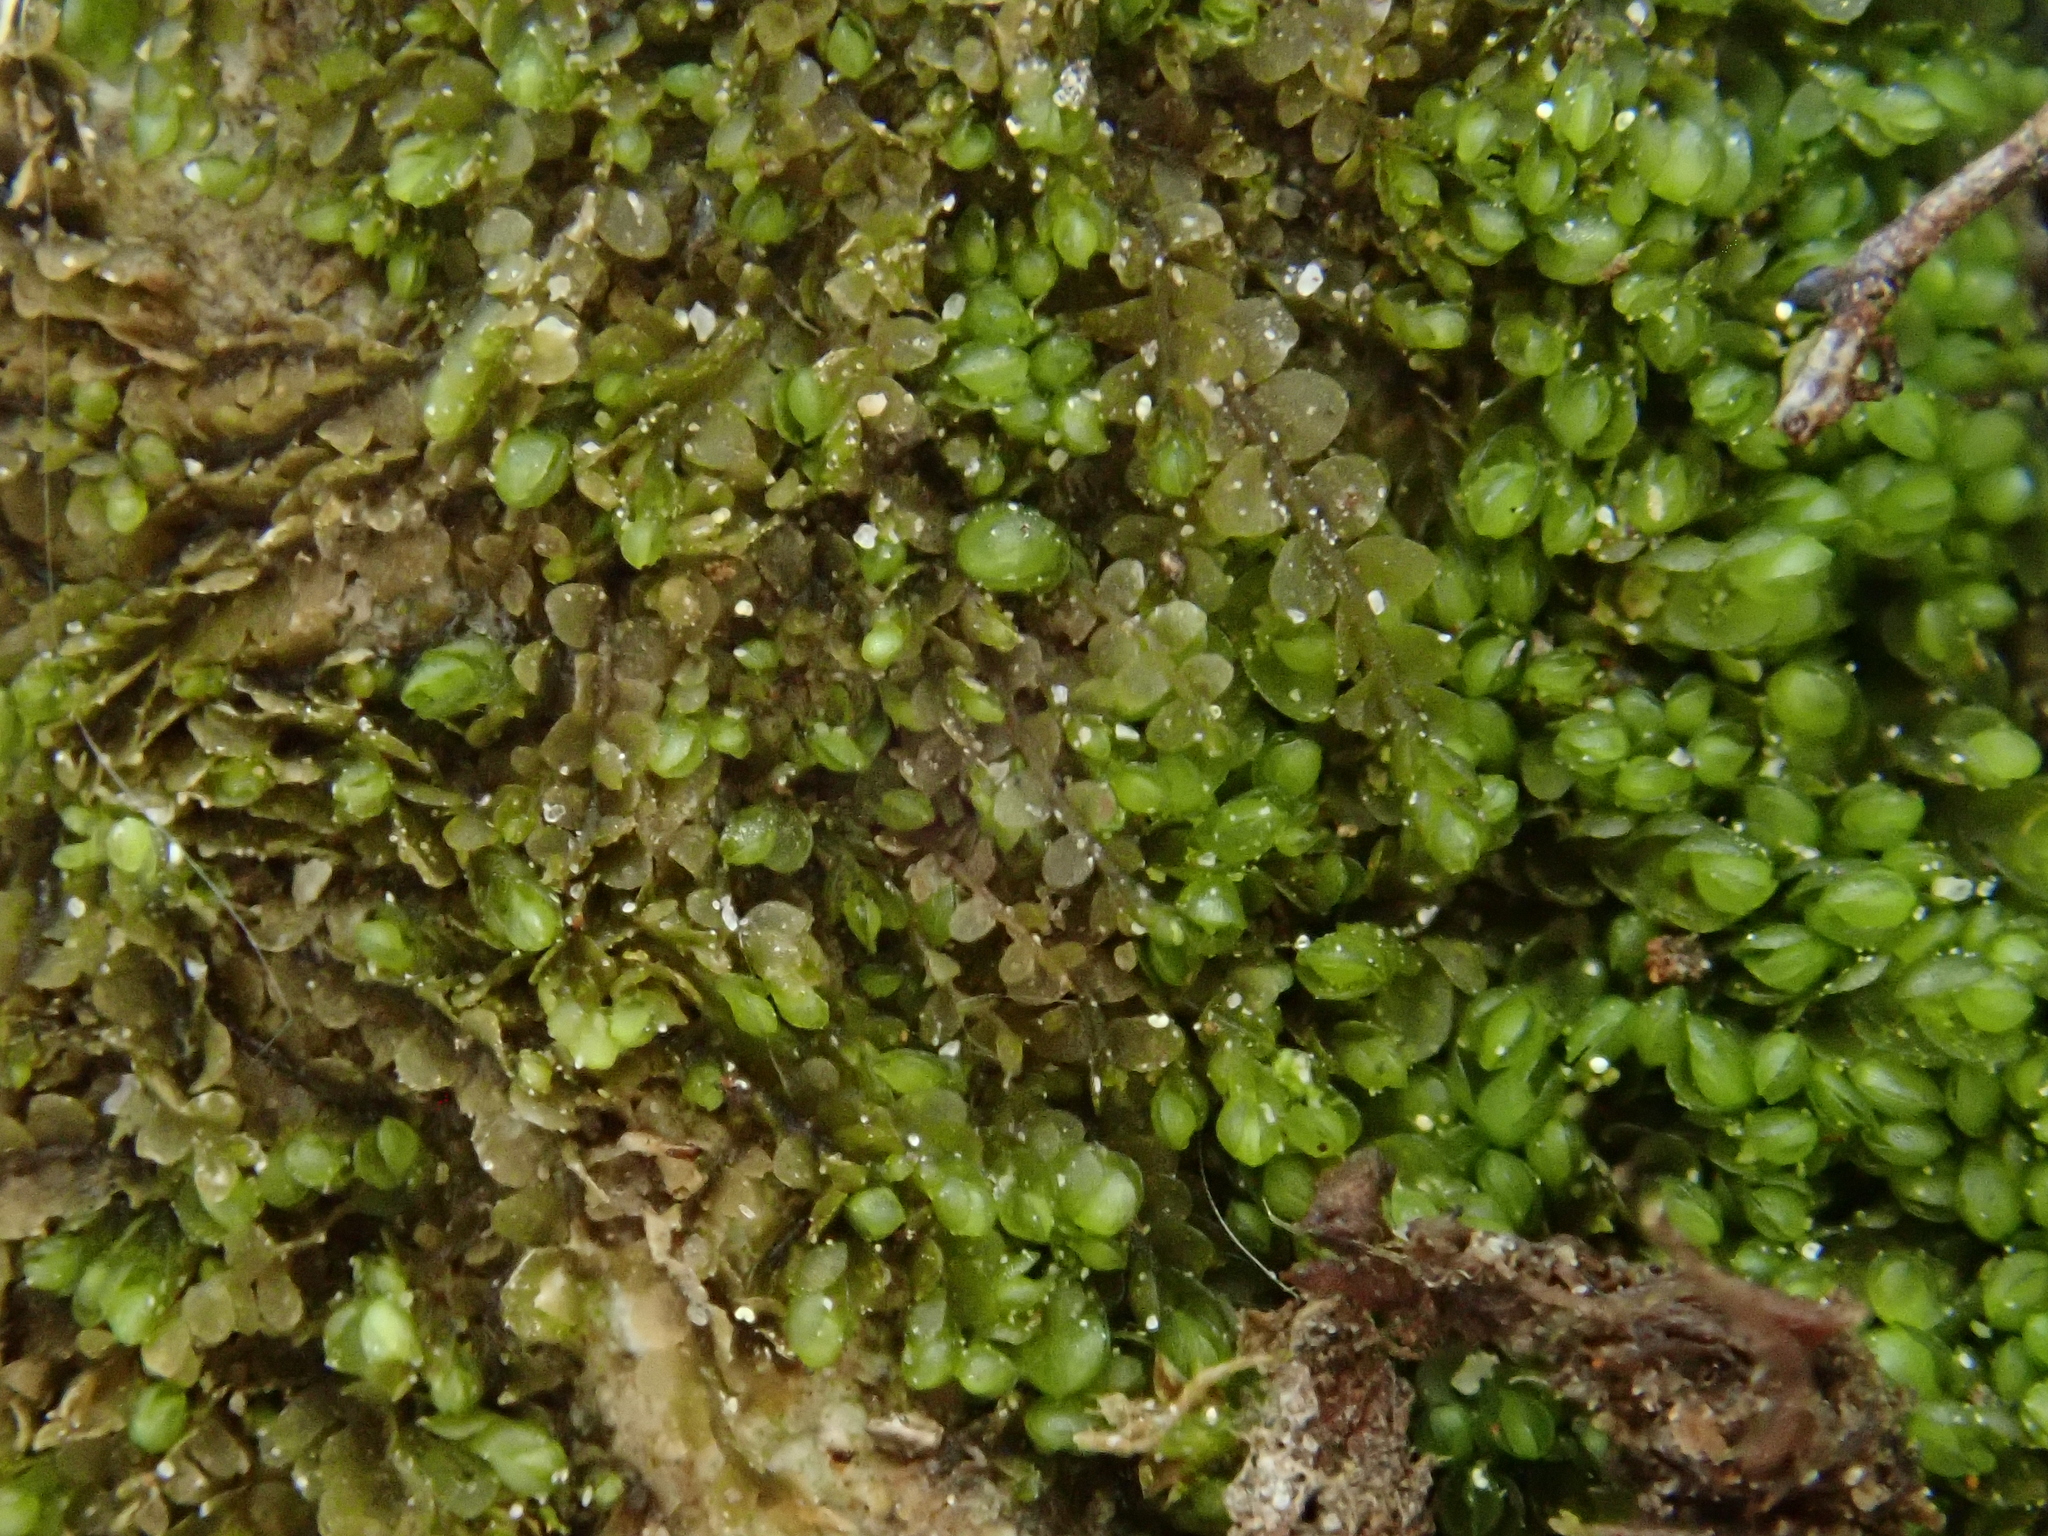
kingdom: Plantae
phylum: Marchantiophyta
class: Jungermanniopsida
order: Jungermanniales
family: Jungermanniaceae
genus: Jungermannia
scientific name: Jungermannia atrovirens
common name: Dark-green flapwort
